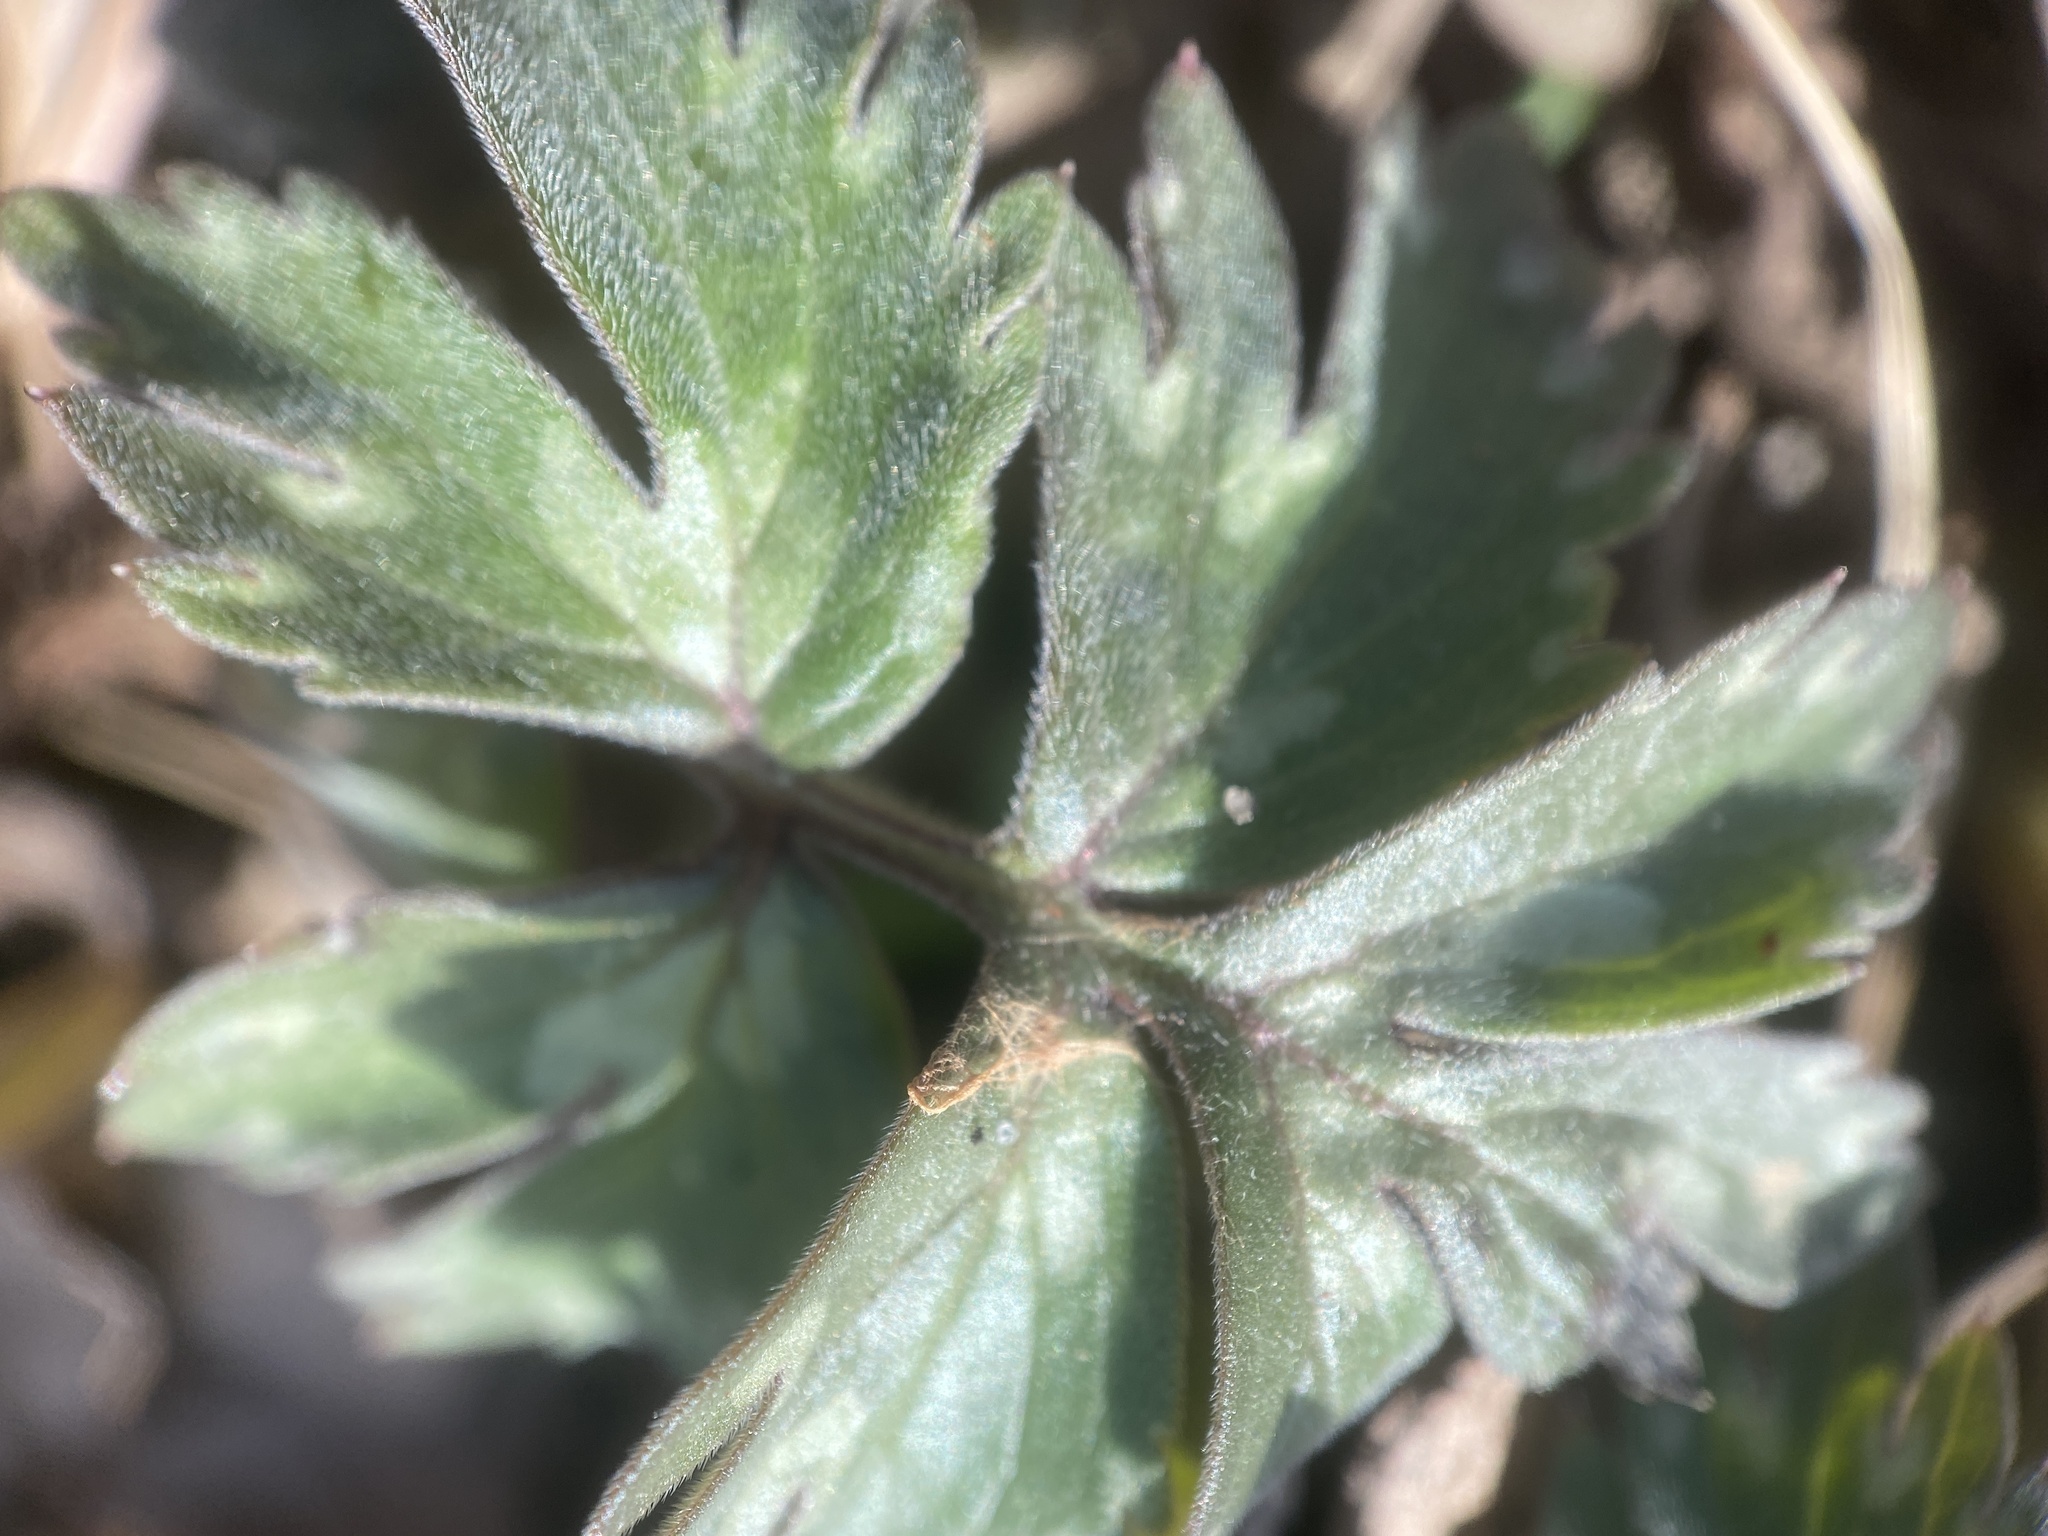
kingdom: Plantae
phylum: Tracheophyta
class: Magnoliopsida
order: Boraginales
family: Hydrophyllaceae
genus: Hydrophyllum
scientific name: Hydrophyllum virginianum
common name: Virginia waterleaf
